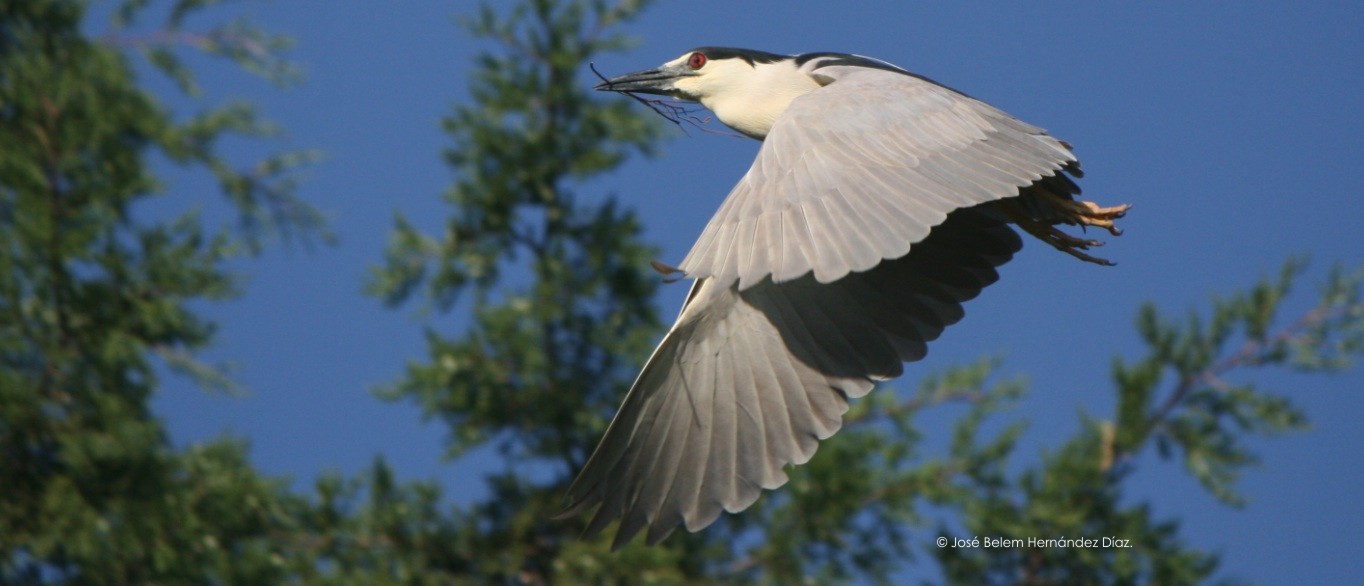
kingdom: Animalia
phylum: Chordata
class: Aves
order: Pelecaniformes
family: Ardeidae
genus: Nycticorax
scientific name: Nycticorax nycticorax
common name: Black-crowned night heron
